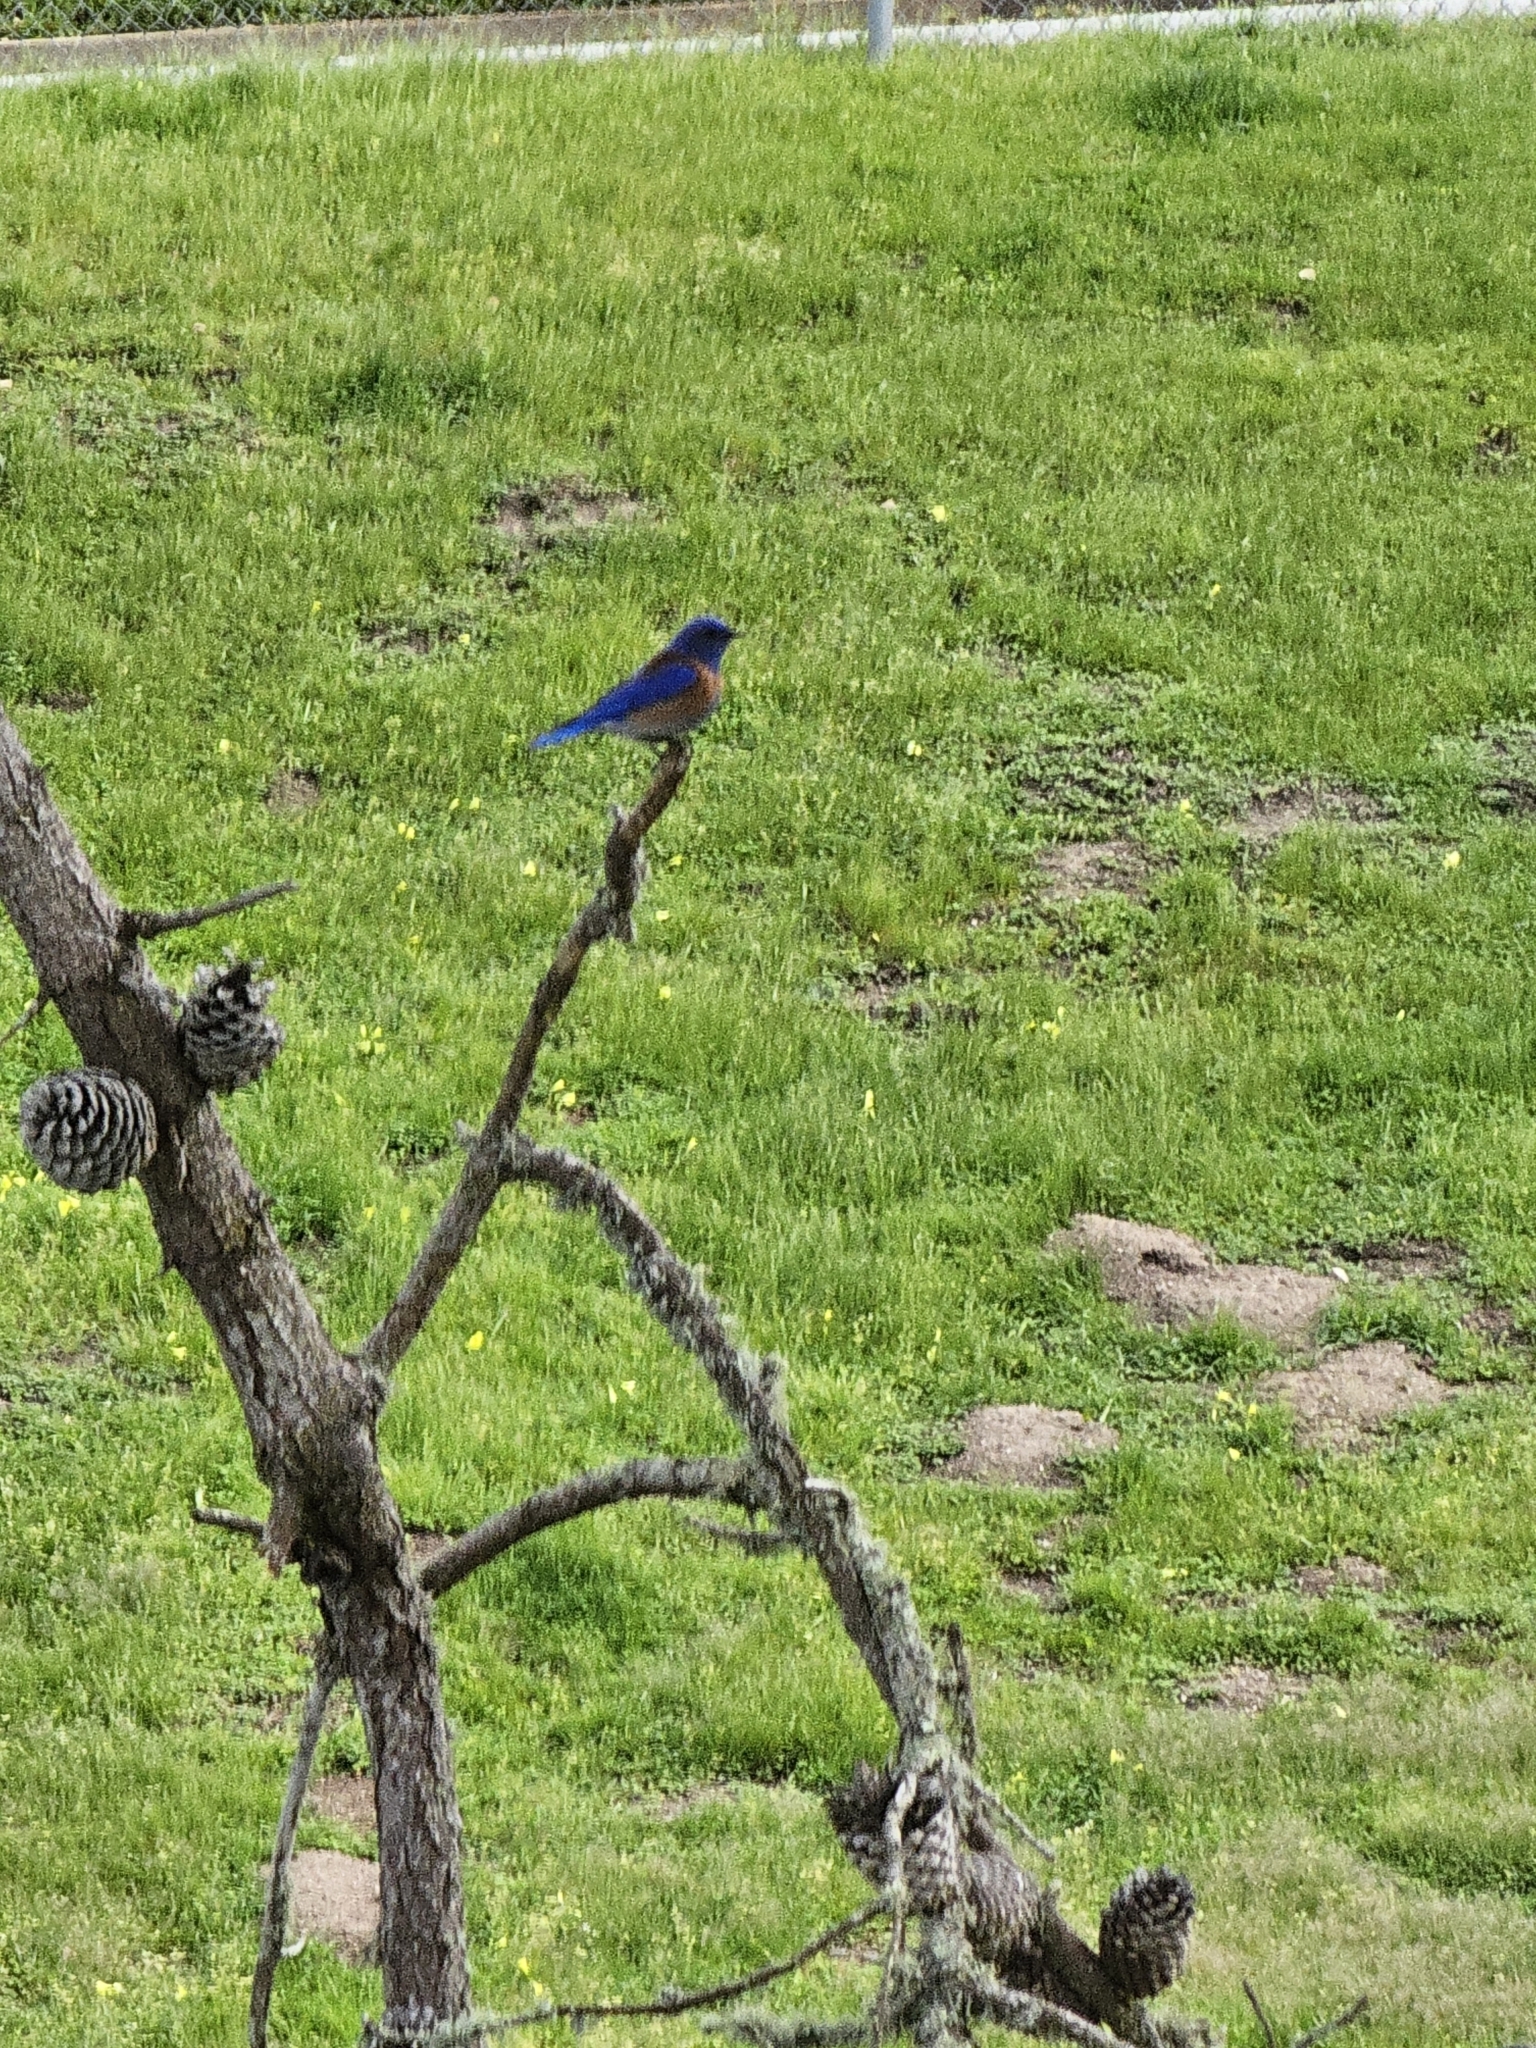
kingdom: Animalia
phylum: Chordata
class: Aves
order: Passeriformes
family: Turdidae
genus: Sialia
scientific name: Sialia mexicana
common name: Western bluebird
